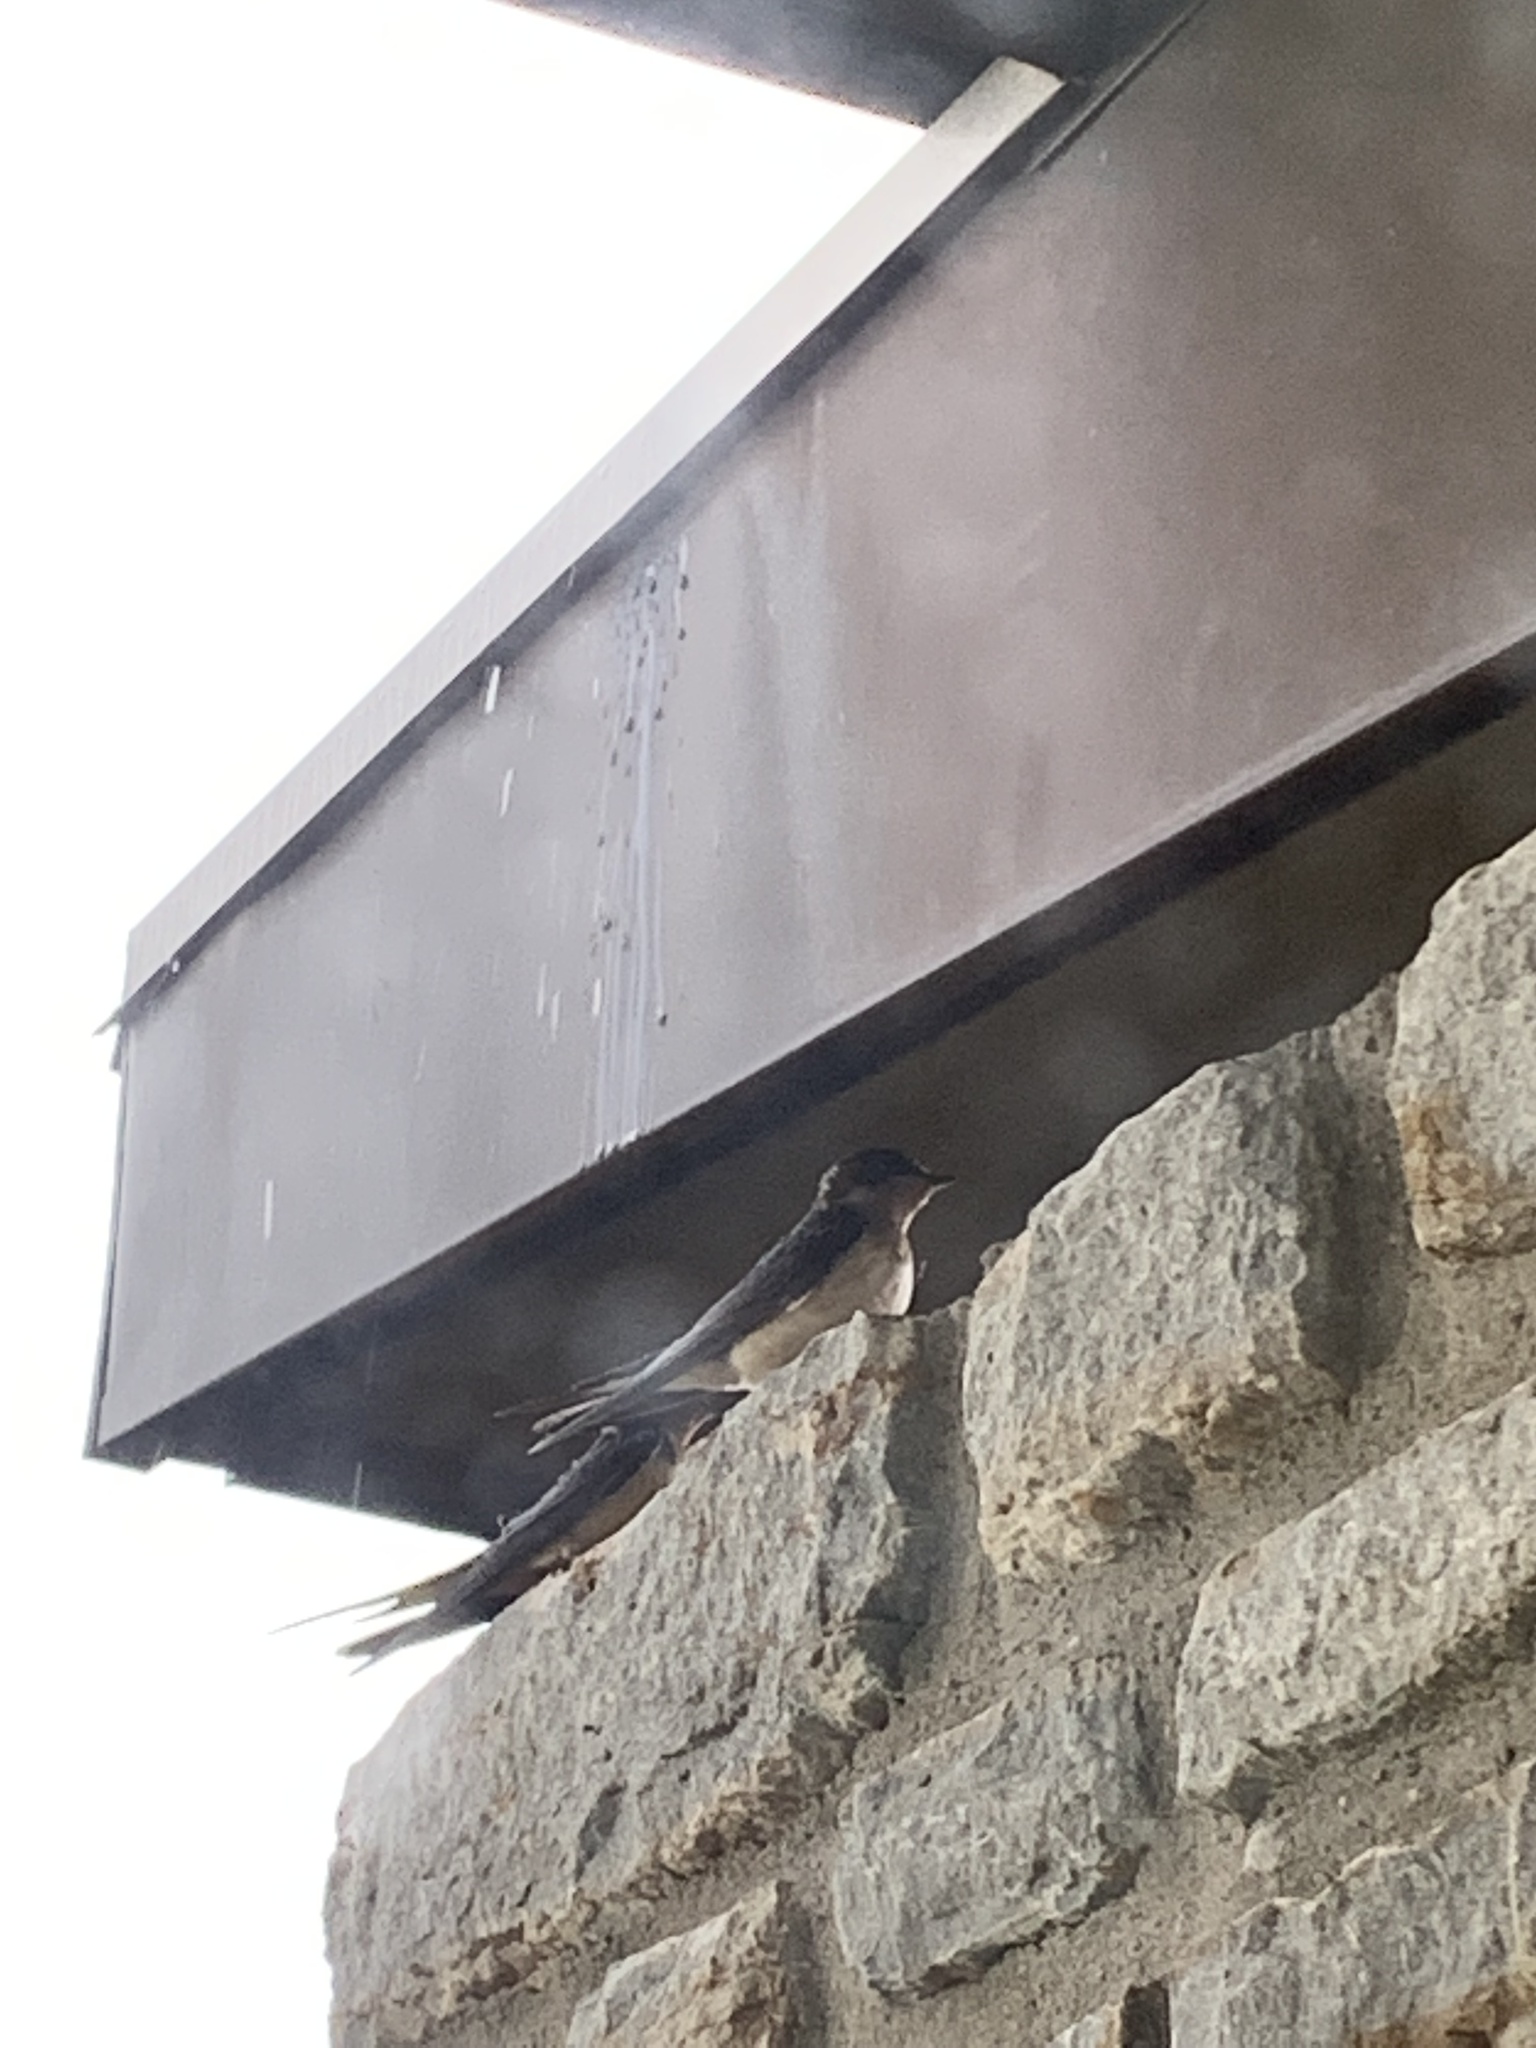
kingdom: Animalia
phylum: Chordata
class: Aves
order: Passeriformes
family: Hirundinidae
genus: Hirundo
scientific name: Hirundo rustica
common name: Barn swallow
